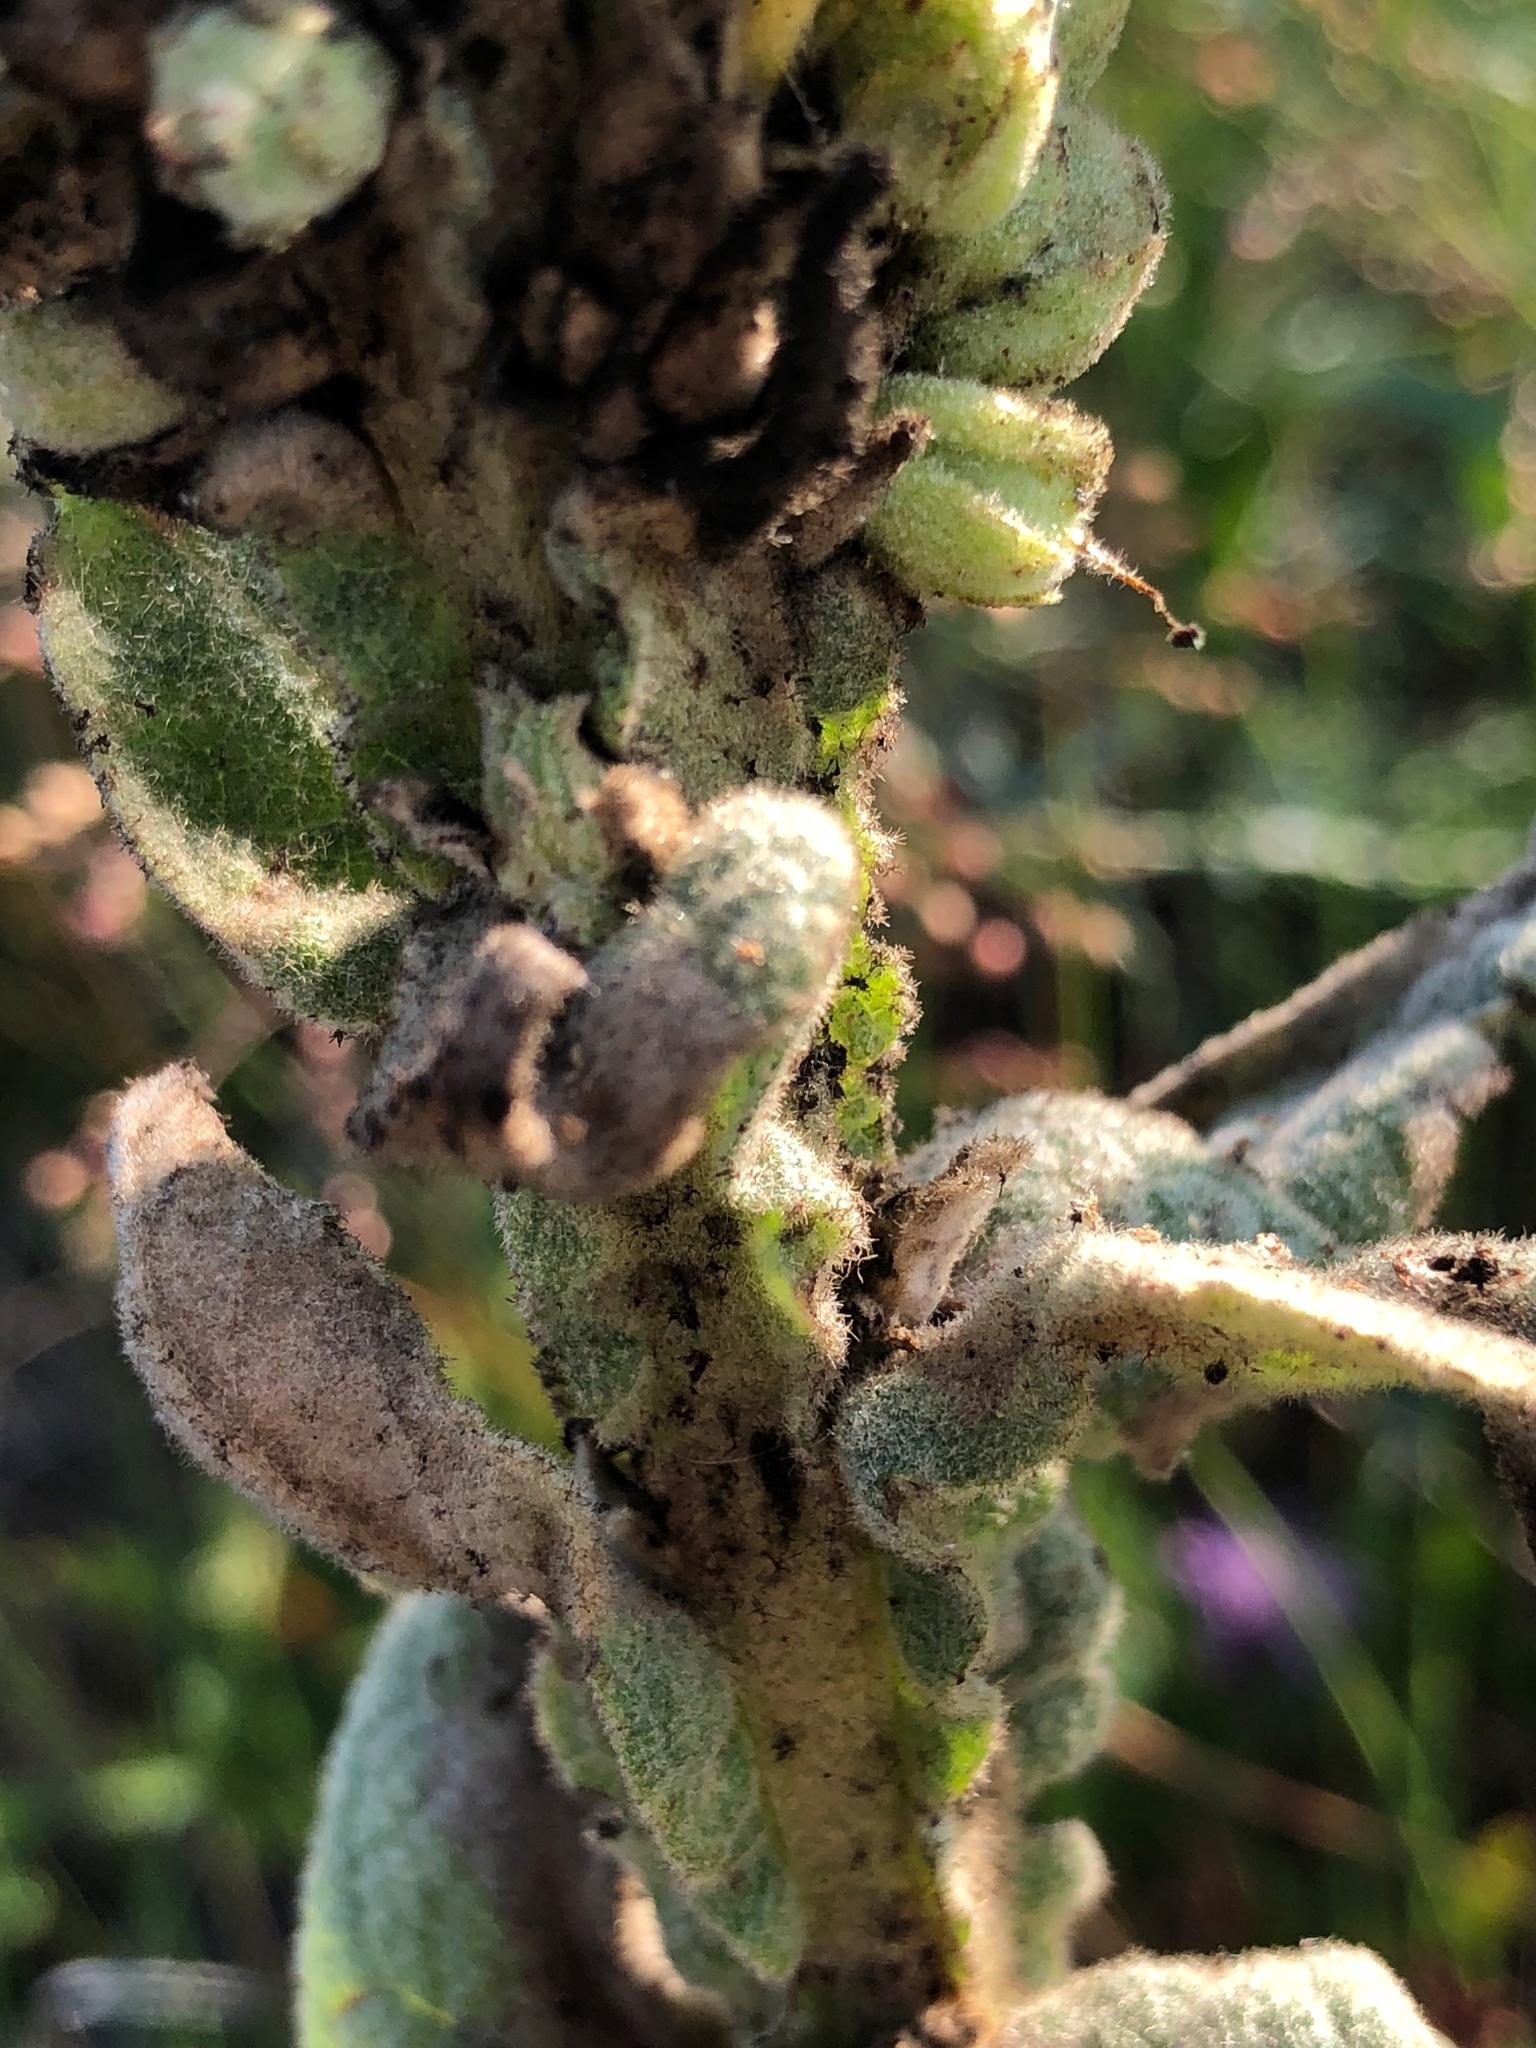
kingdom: Plantae
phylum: Tracheophyta
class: Magnoliopsida
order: Lamiales
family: Scrophulariaceae
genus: Verbascum
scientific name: Verbascum thapsus
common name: Common mullein
